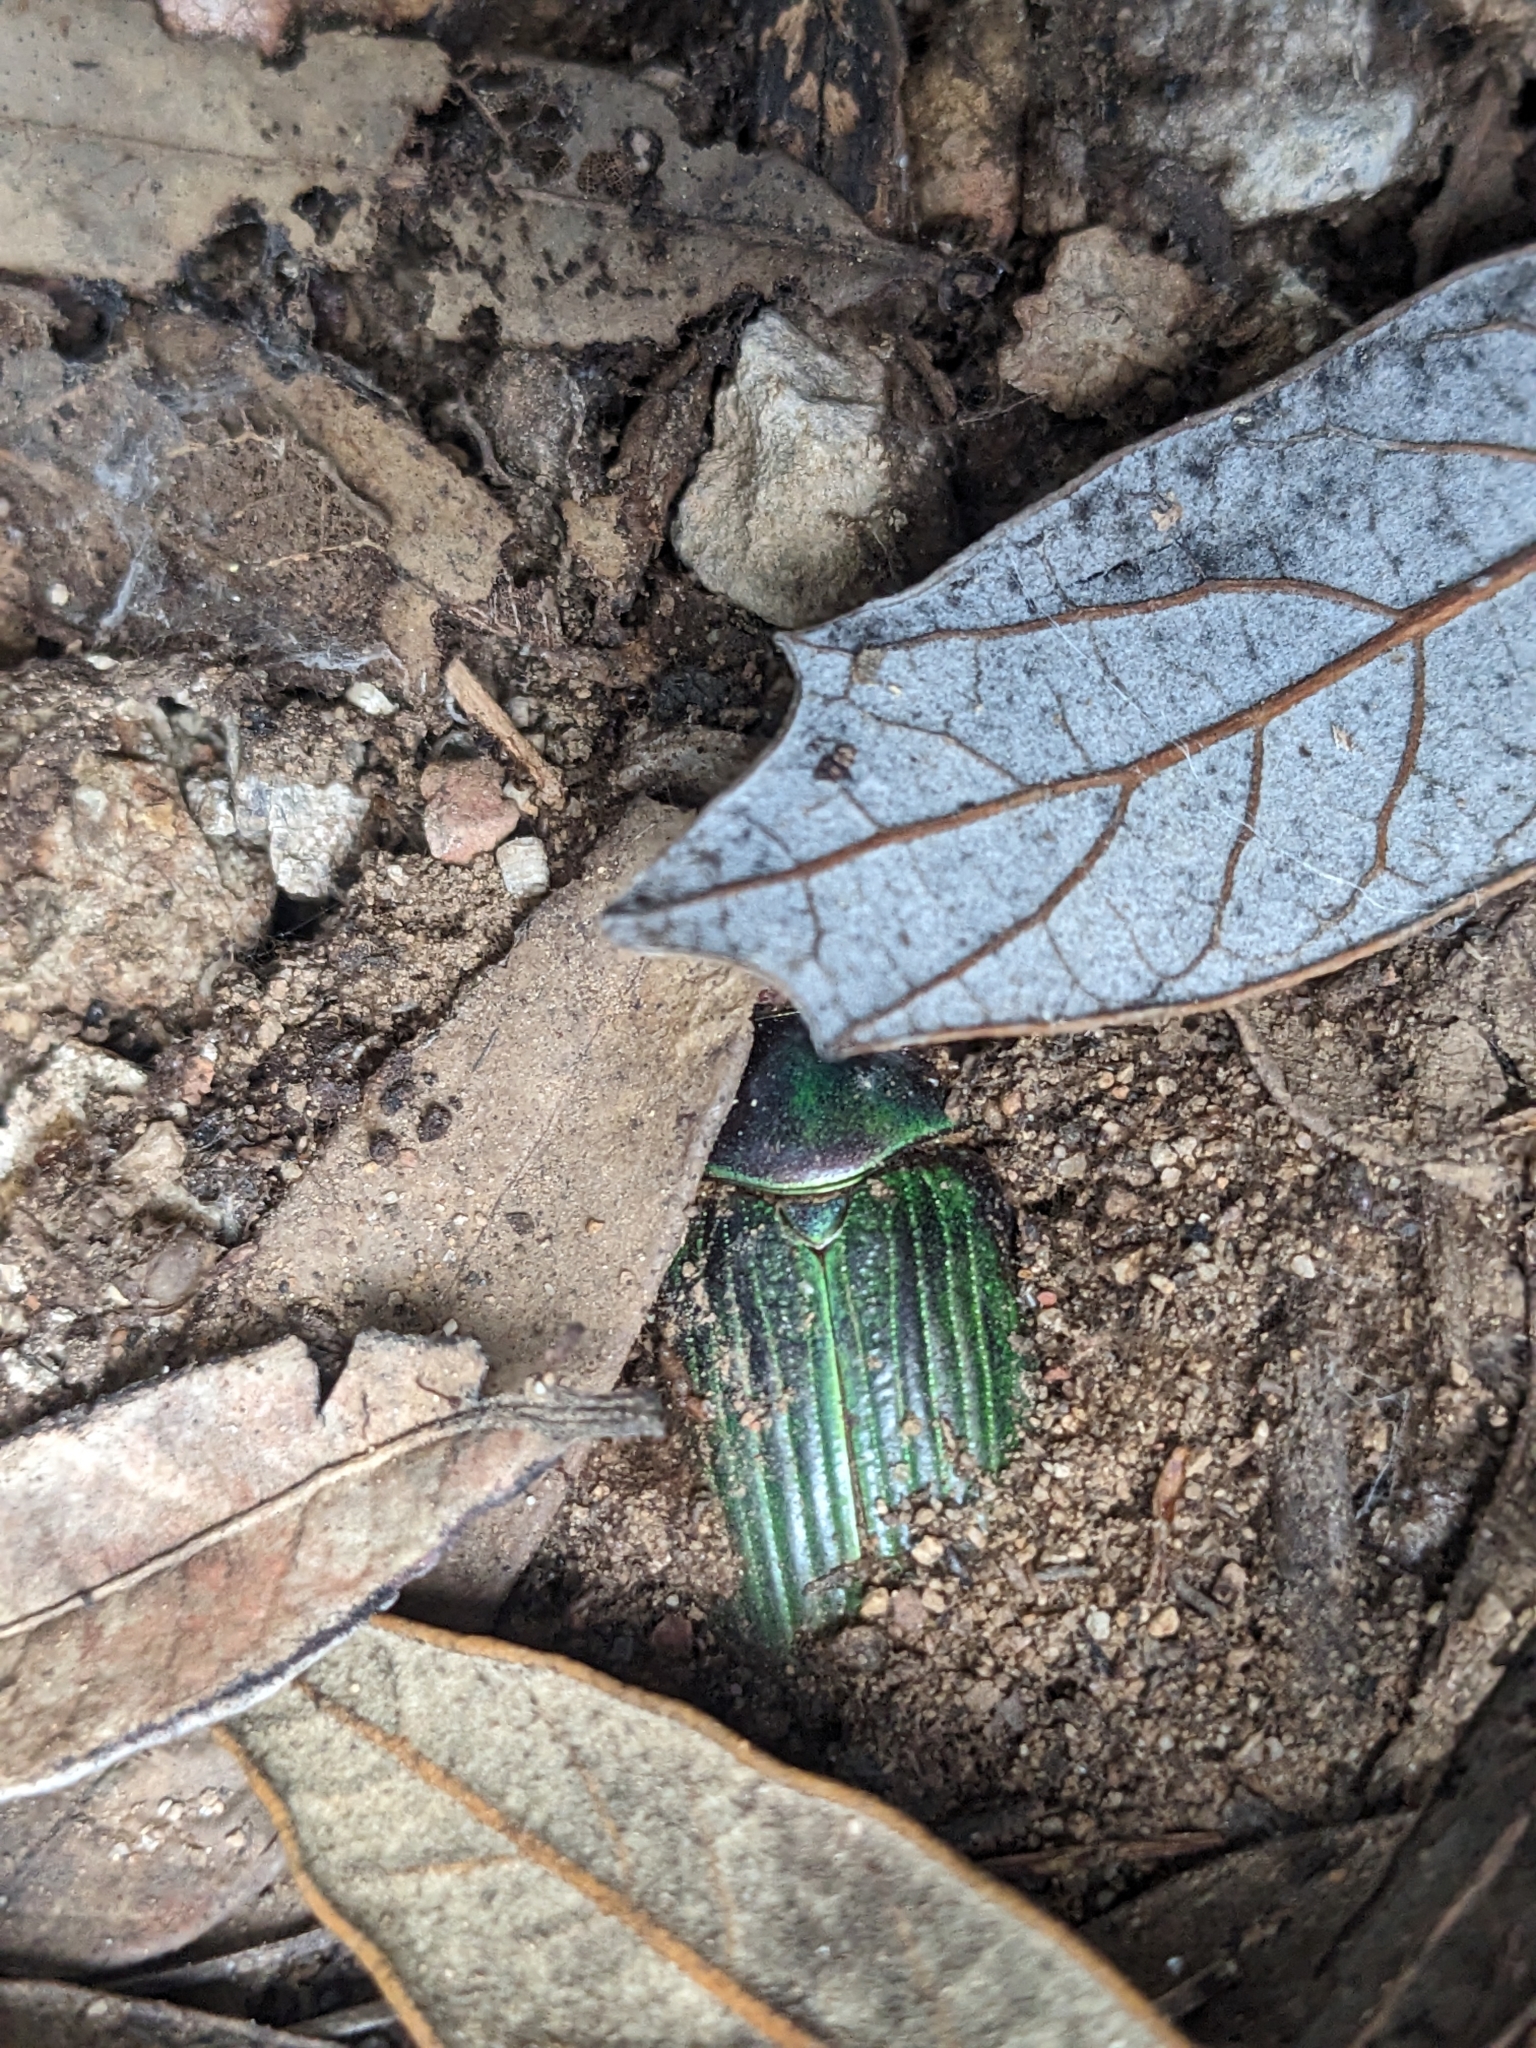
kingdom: Animalia
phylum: Arthropoda
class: Insecta
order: Coleoptera
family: Scarabaeidae
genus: Chrysina
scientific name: Chrysina lecontei
